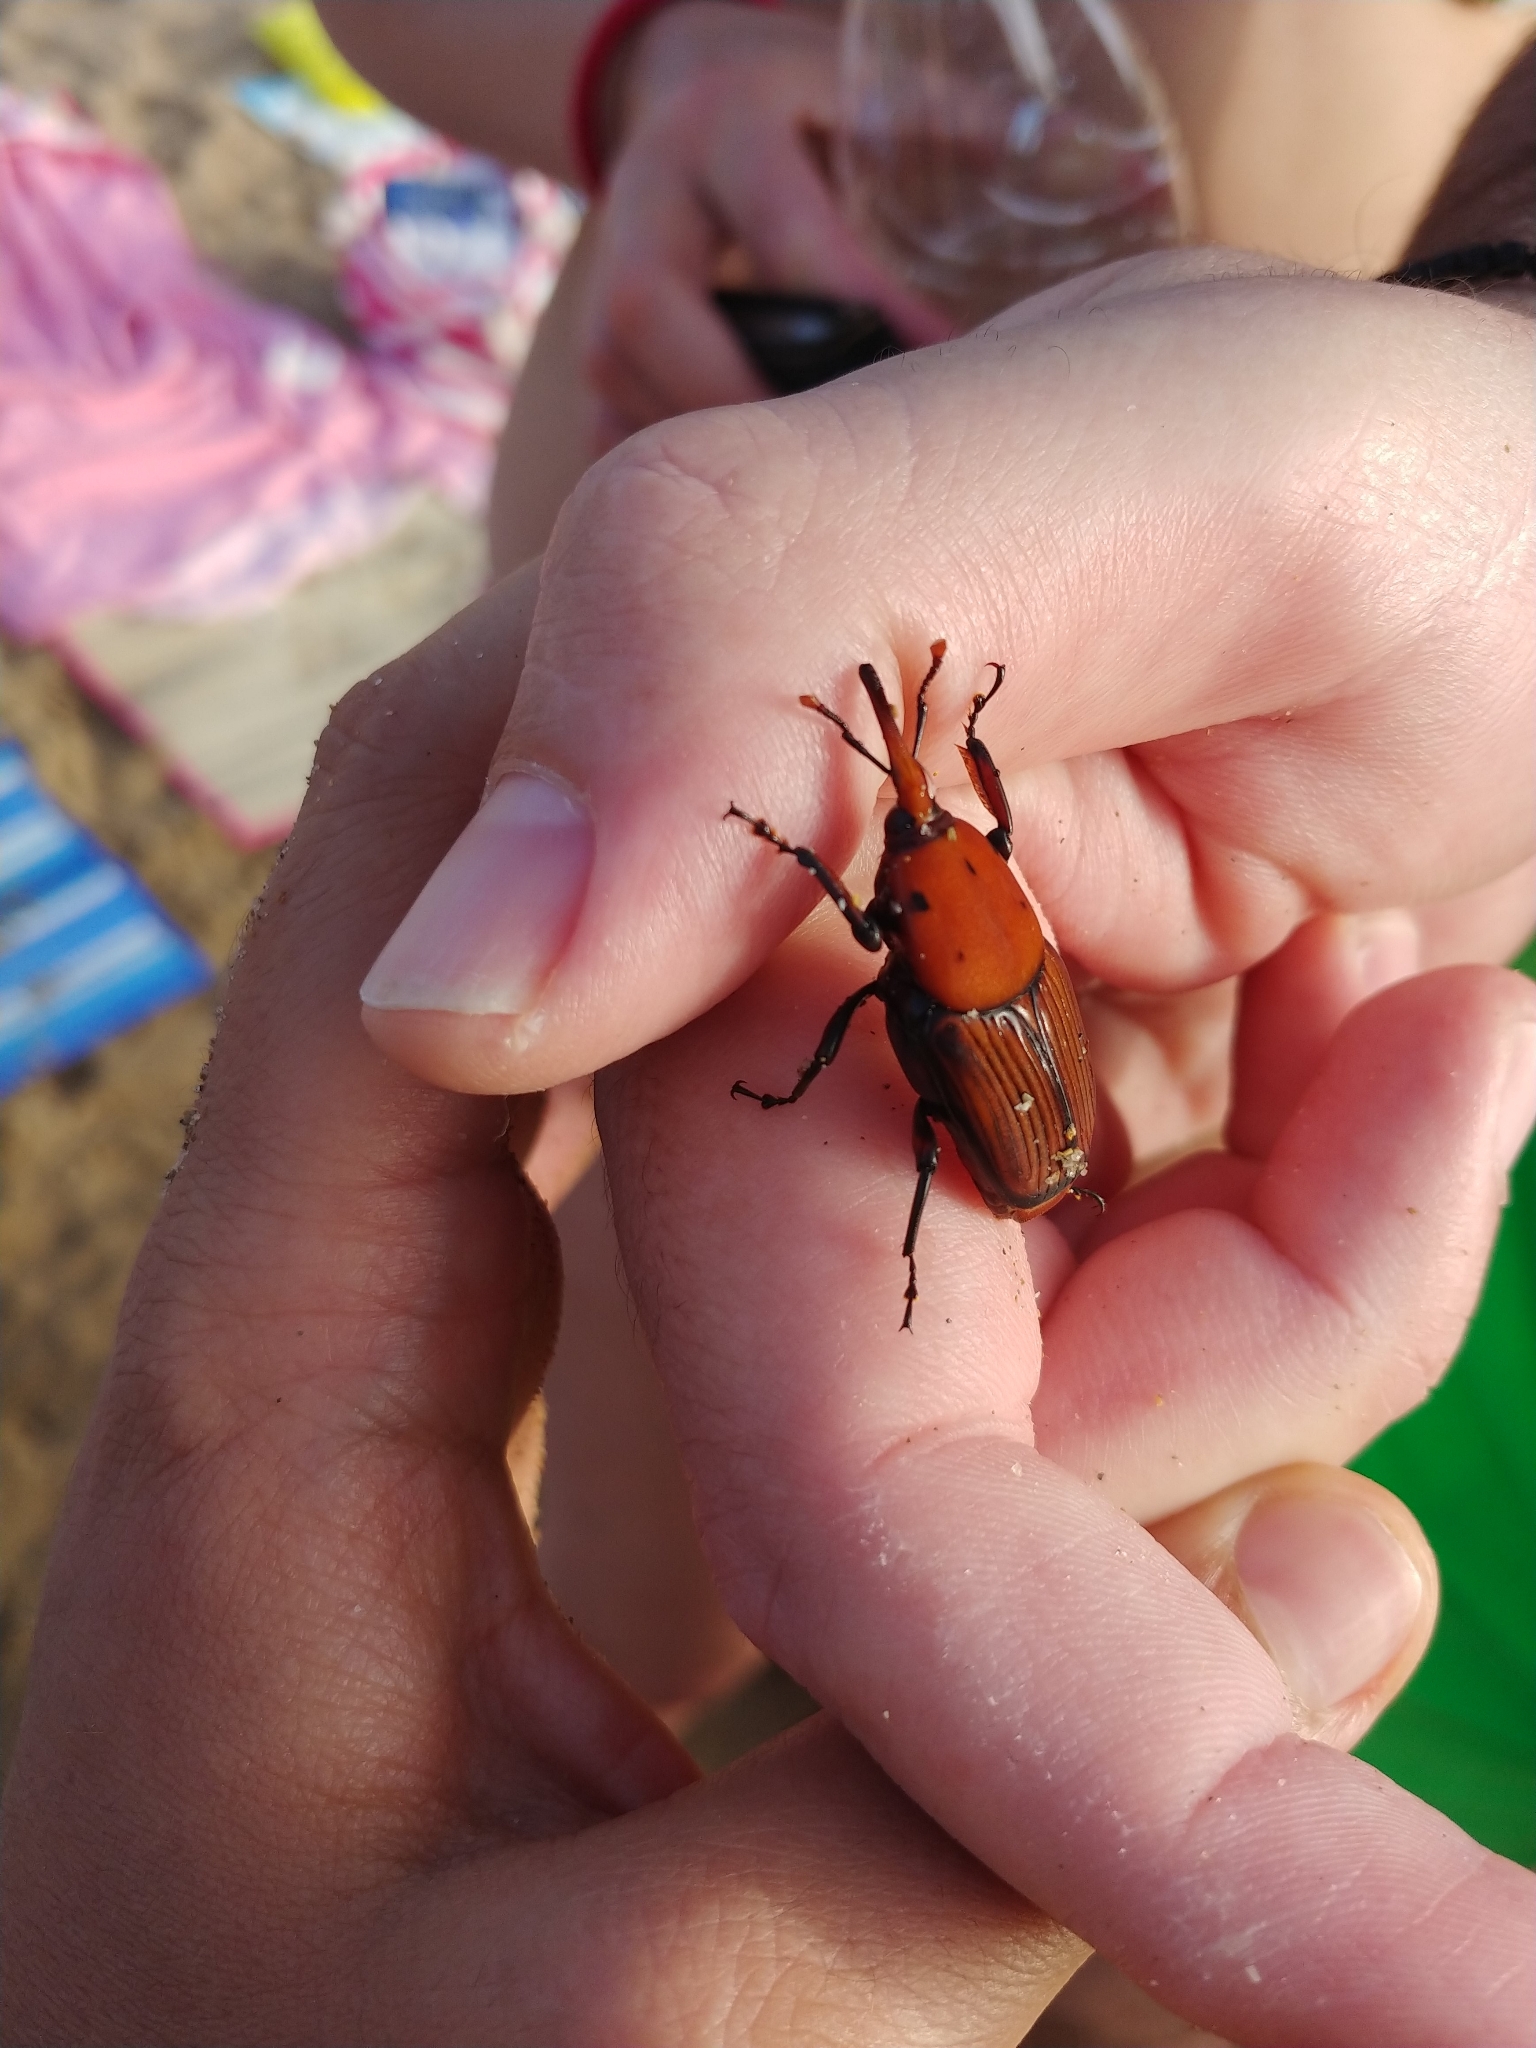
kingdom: Animalia
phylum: Arthropoda
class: Insecta
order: Coleoptera
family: Dryophthoridae
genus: Rhynchophorus
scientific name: Rhynchophorus ferrugineus
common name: Red palm weevil
